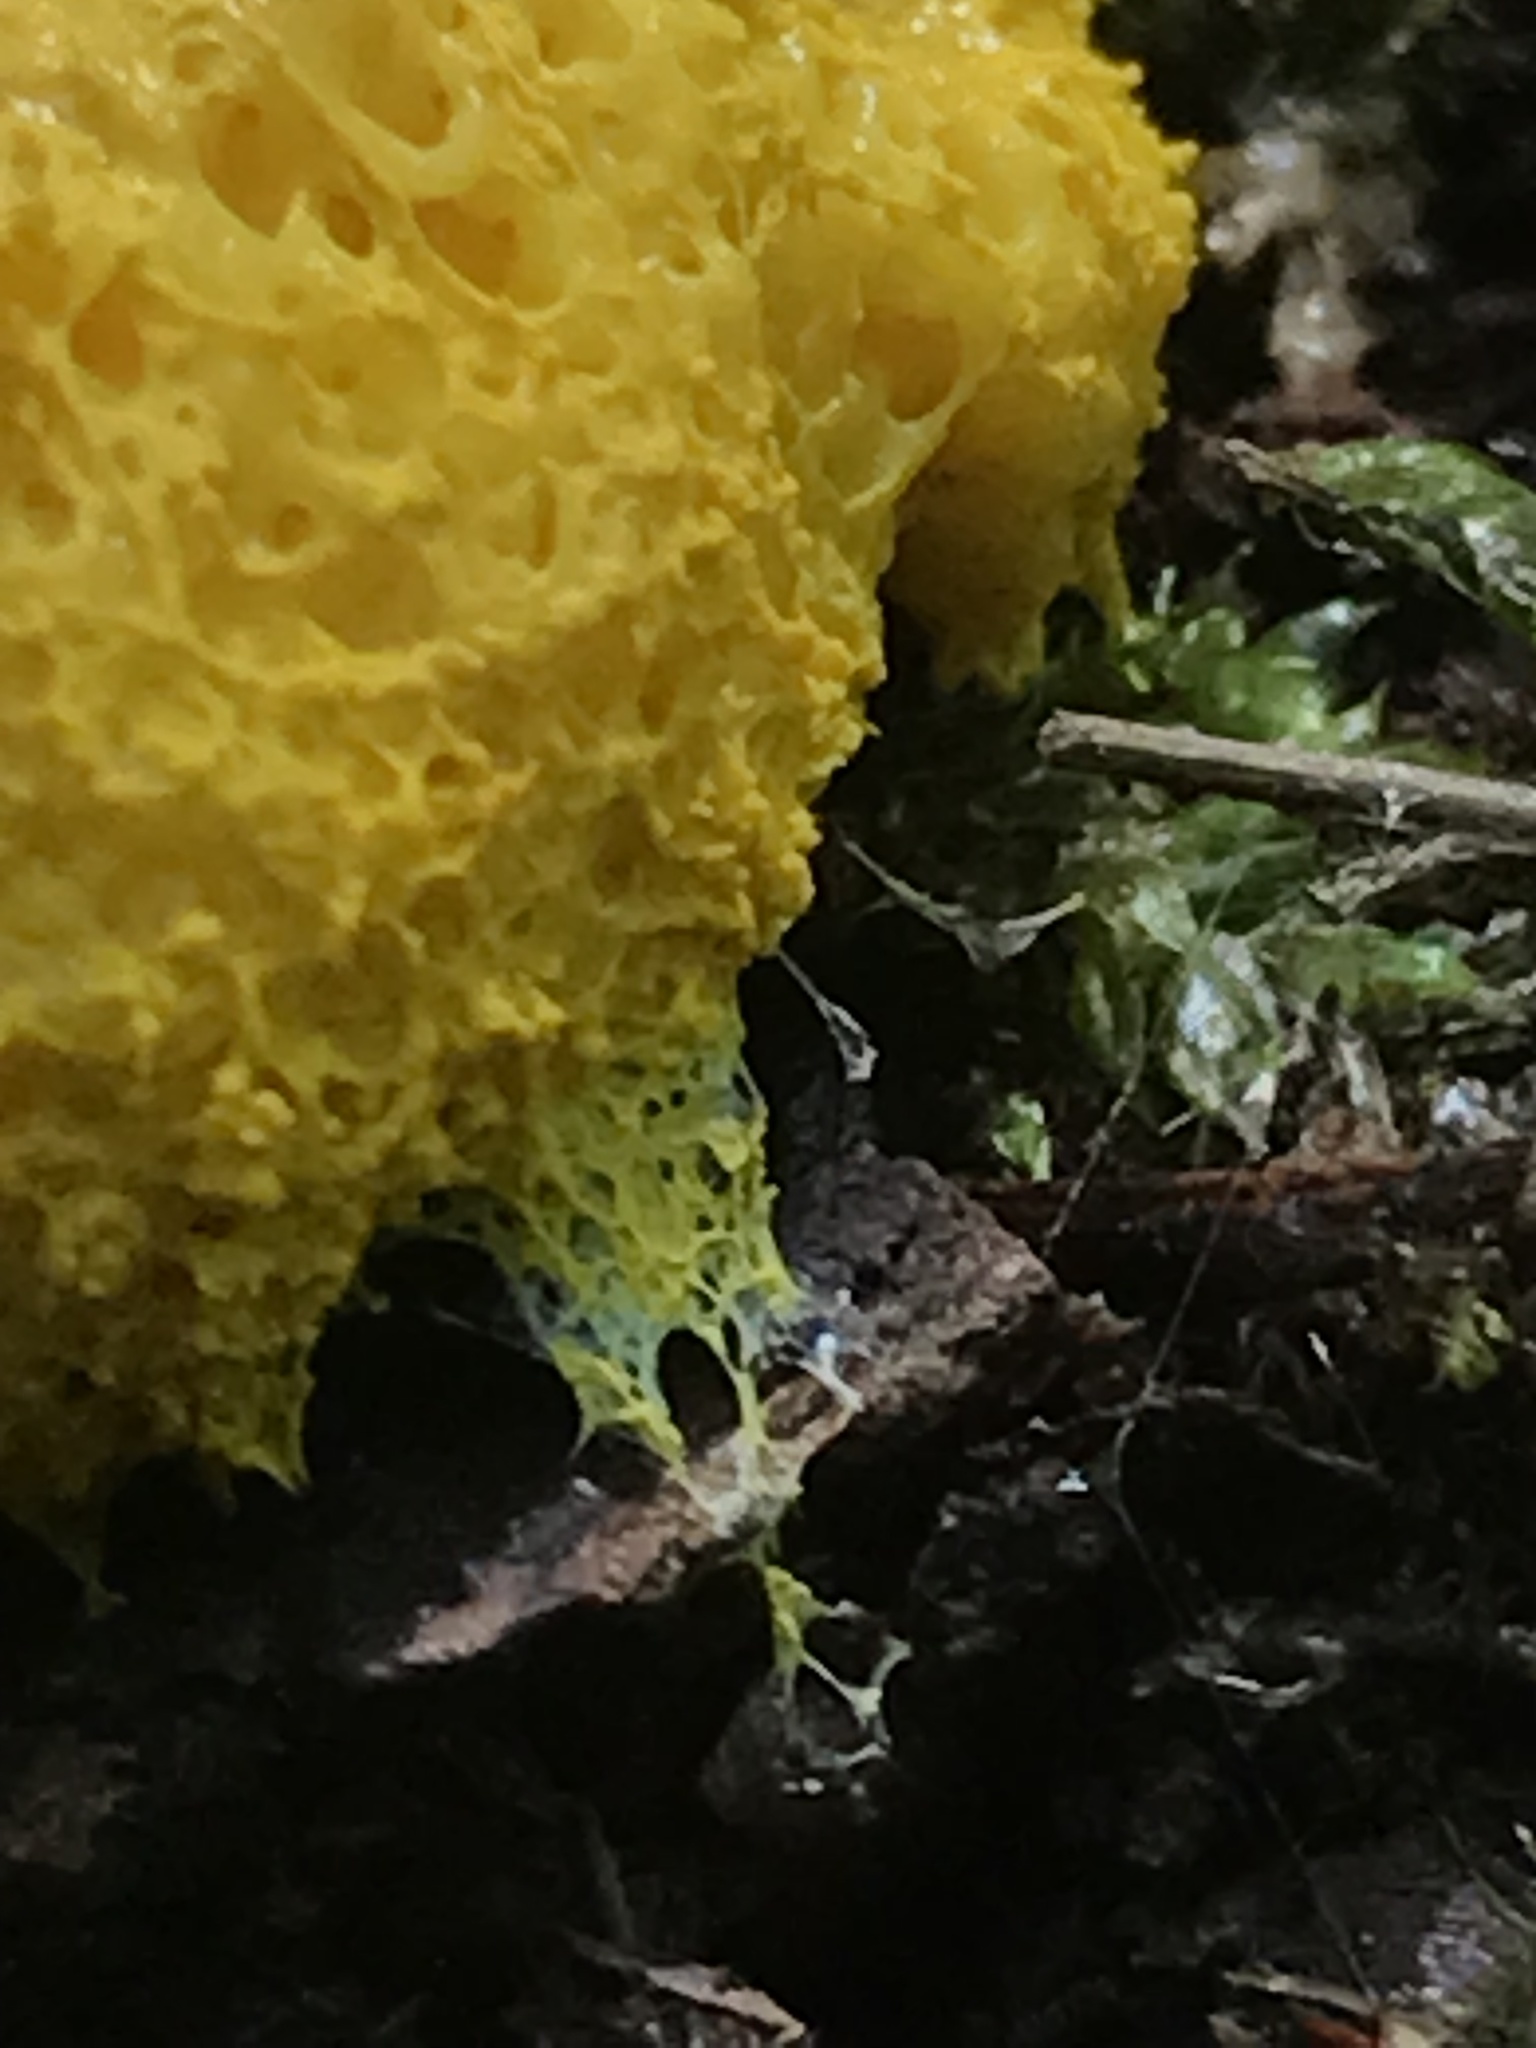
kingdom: Protozoa
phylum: Mycetozoa
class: Myxomycetes
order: Physarales
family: Physaraceae
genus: Fuligo
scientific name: Fuligo septica
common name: Dog vomit slime mold
